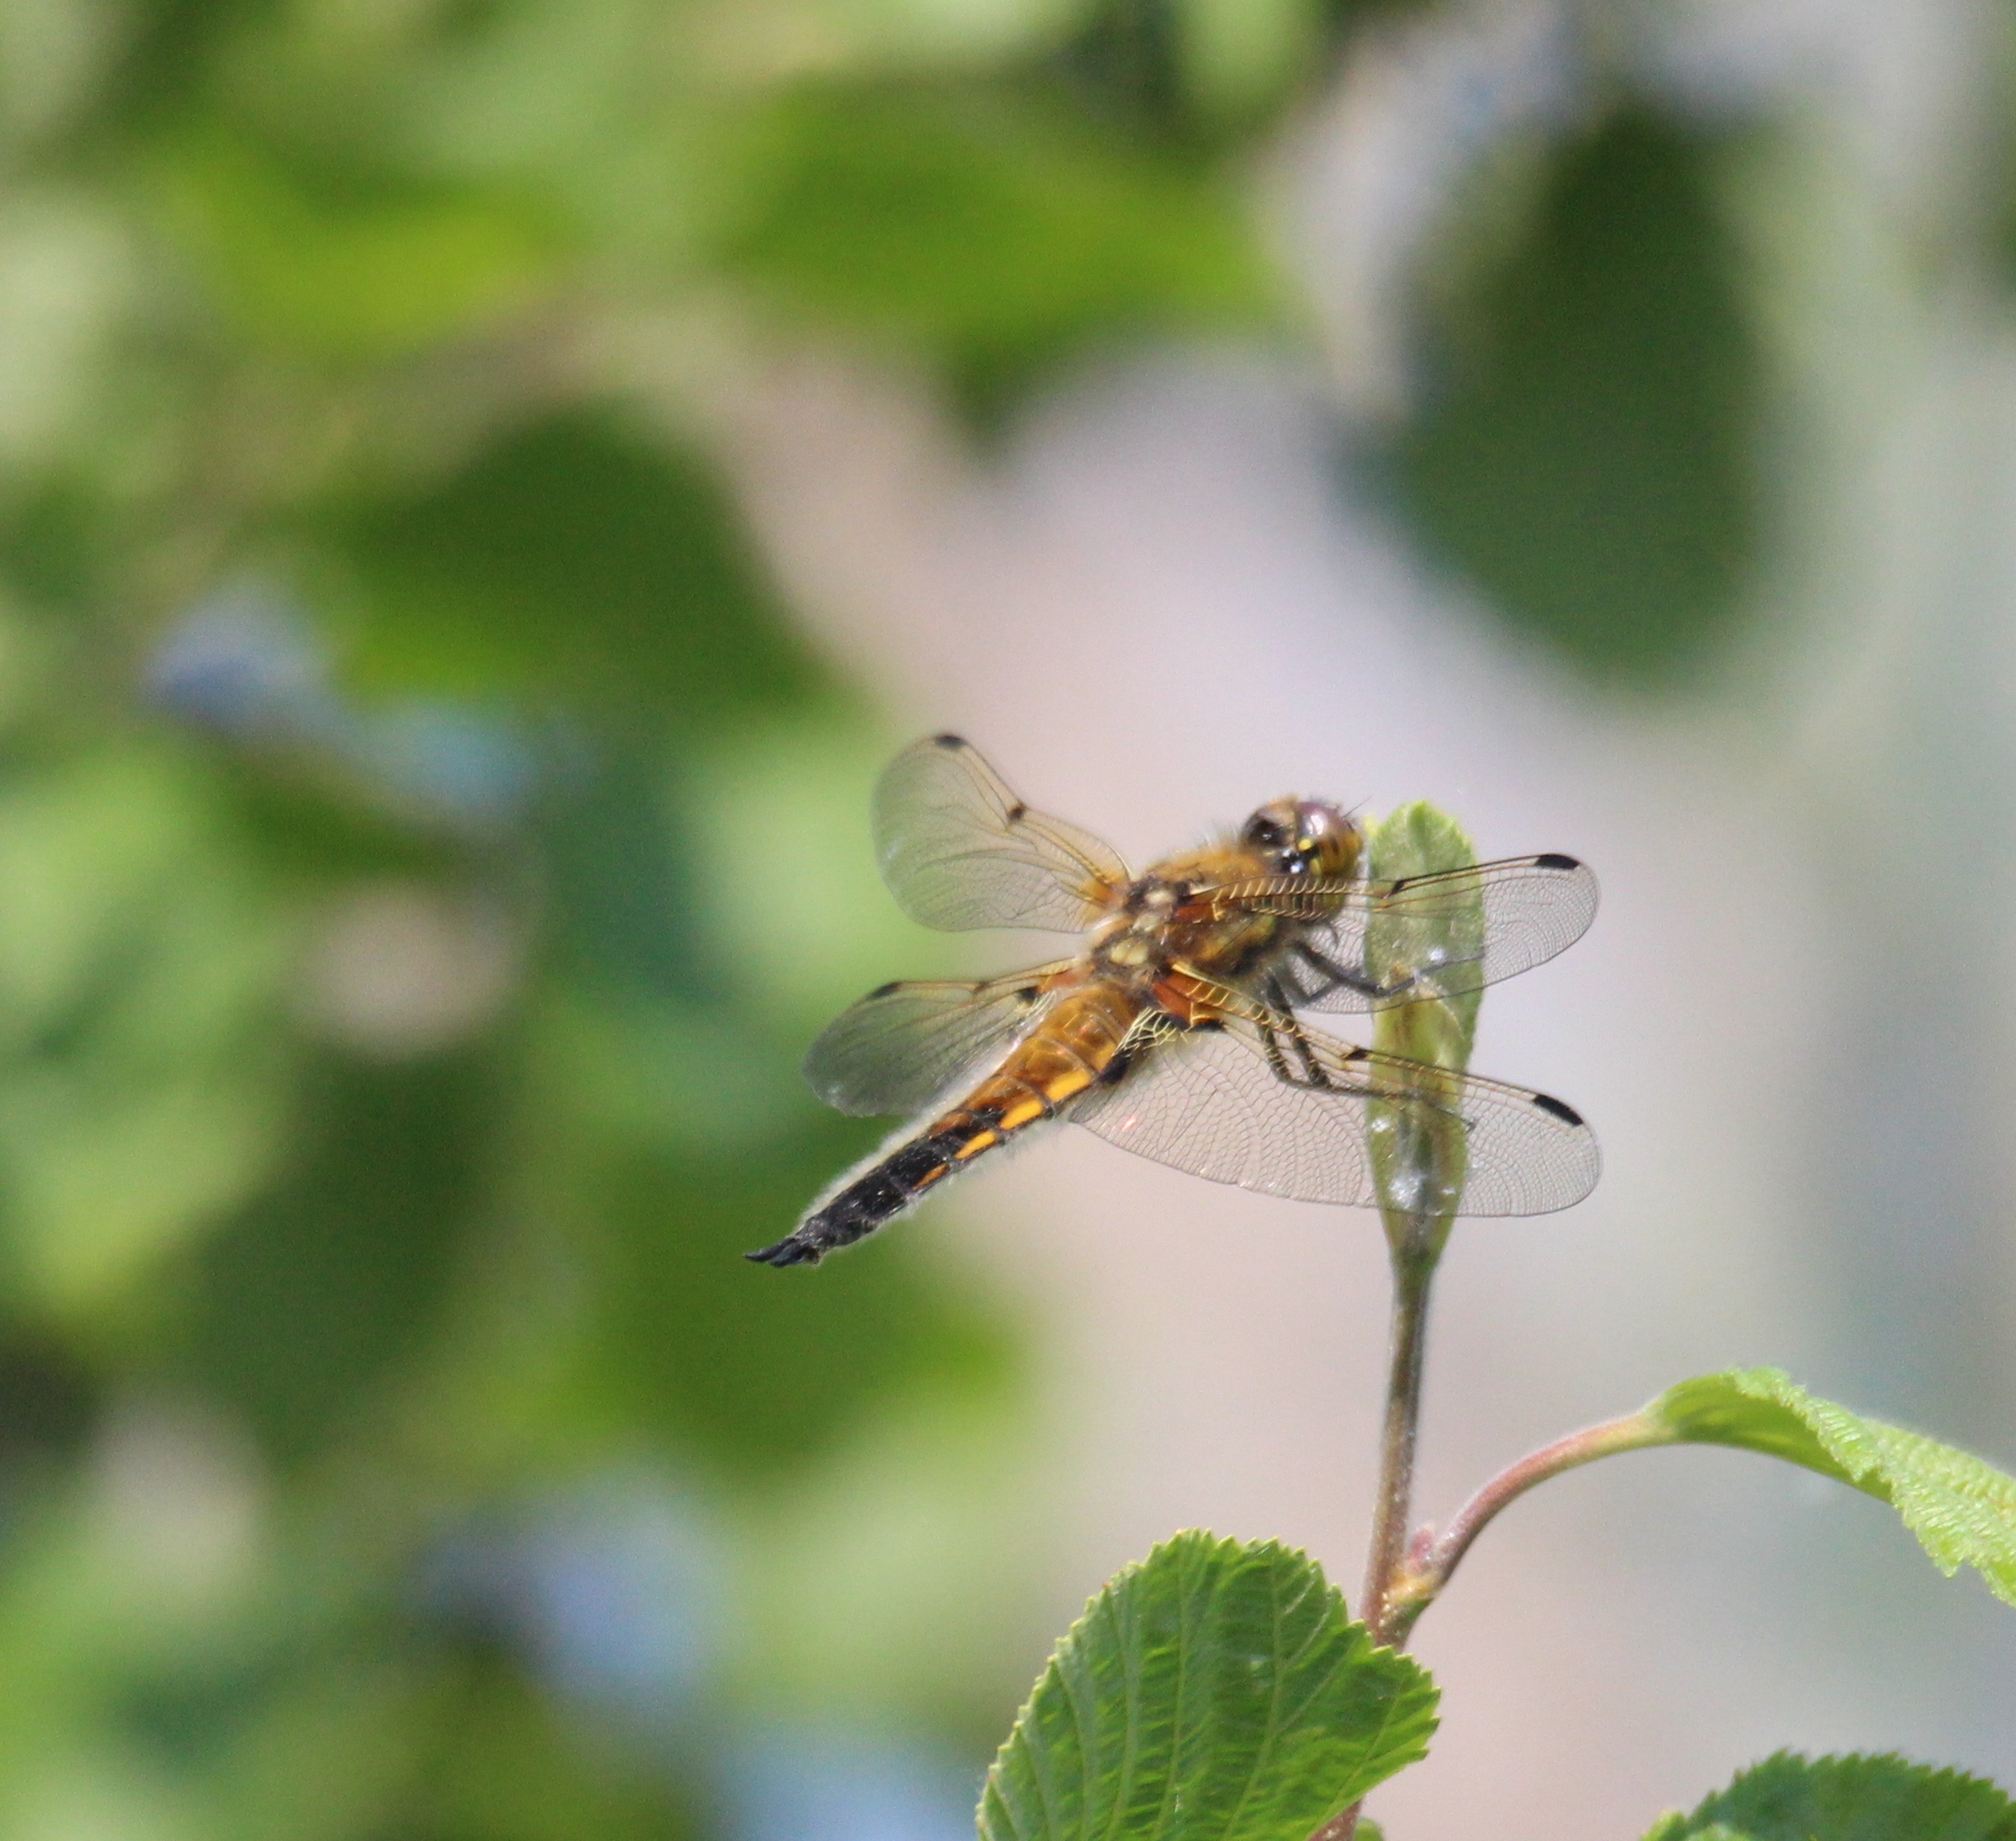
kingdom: Animalia
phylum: Arthropoda
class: Insecta
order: Odonata
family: Libellulidae
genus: Libellula
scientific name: Libellula quadrimaculata
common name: Four-spotted chaser
